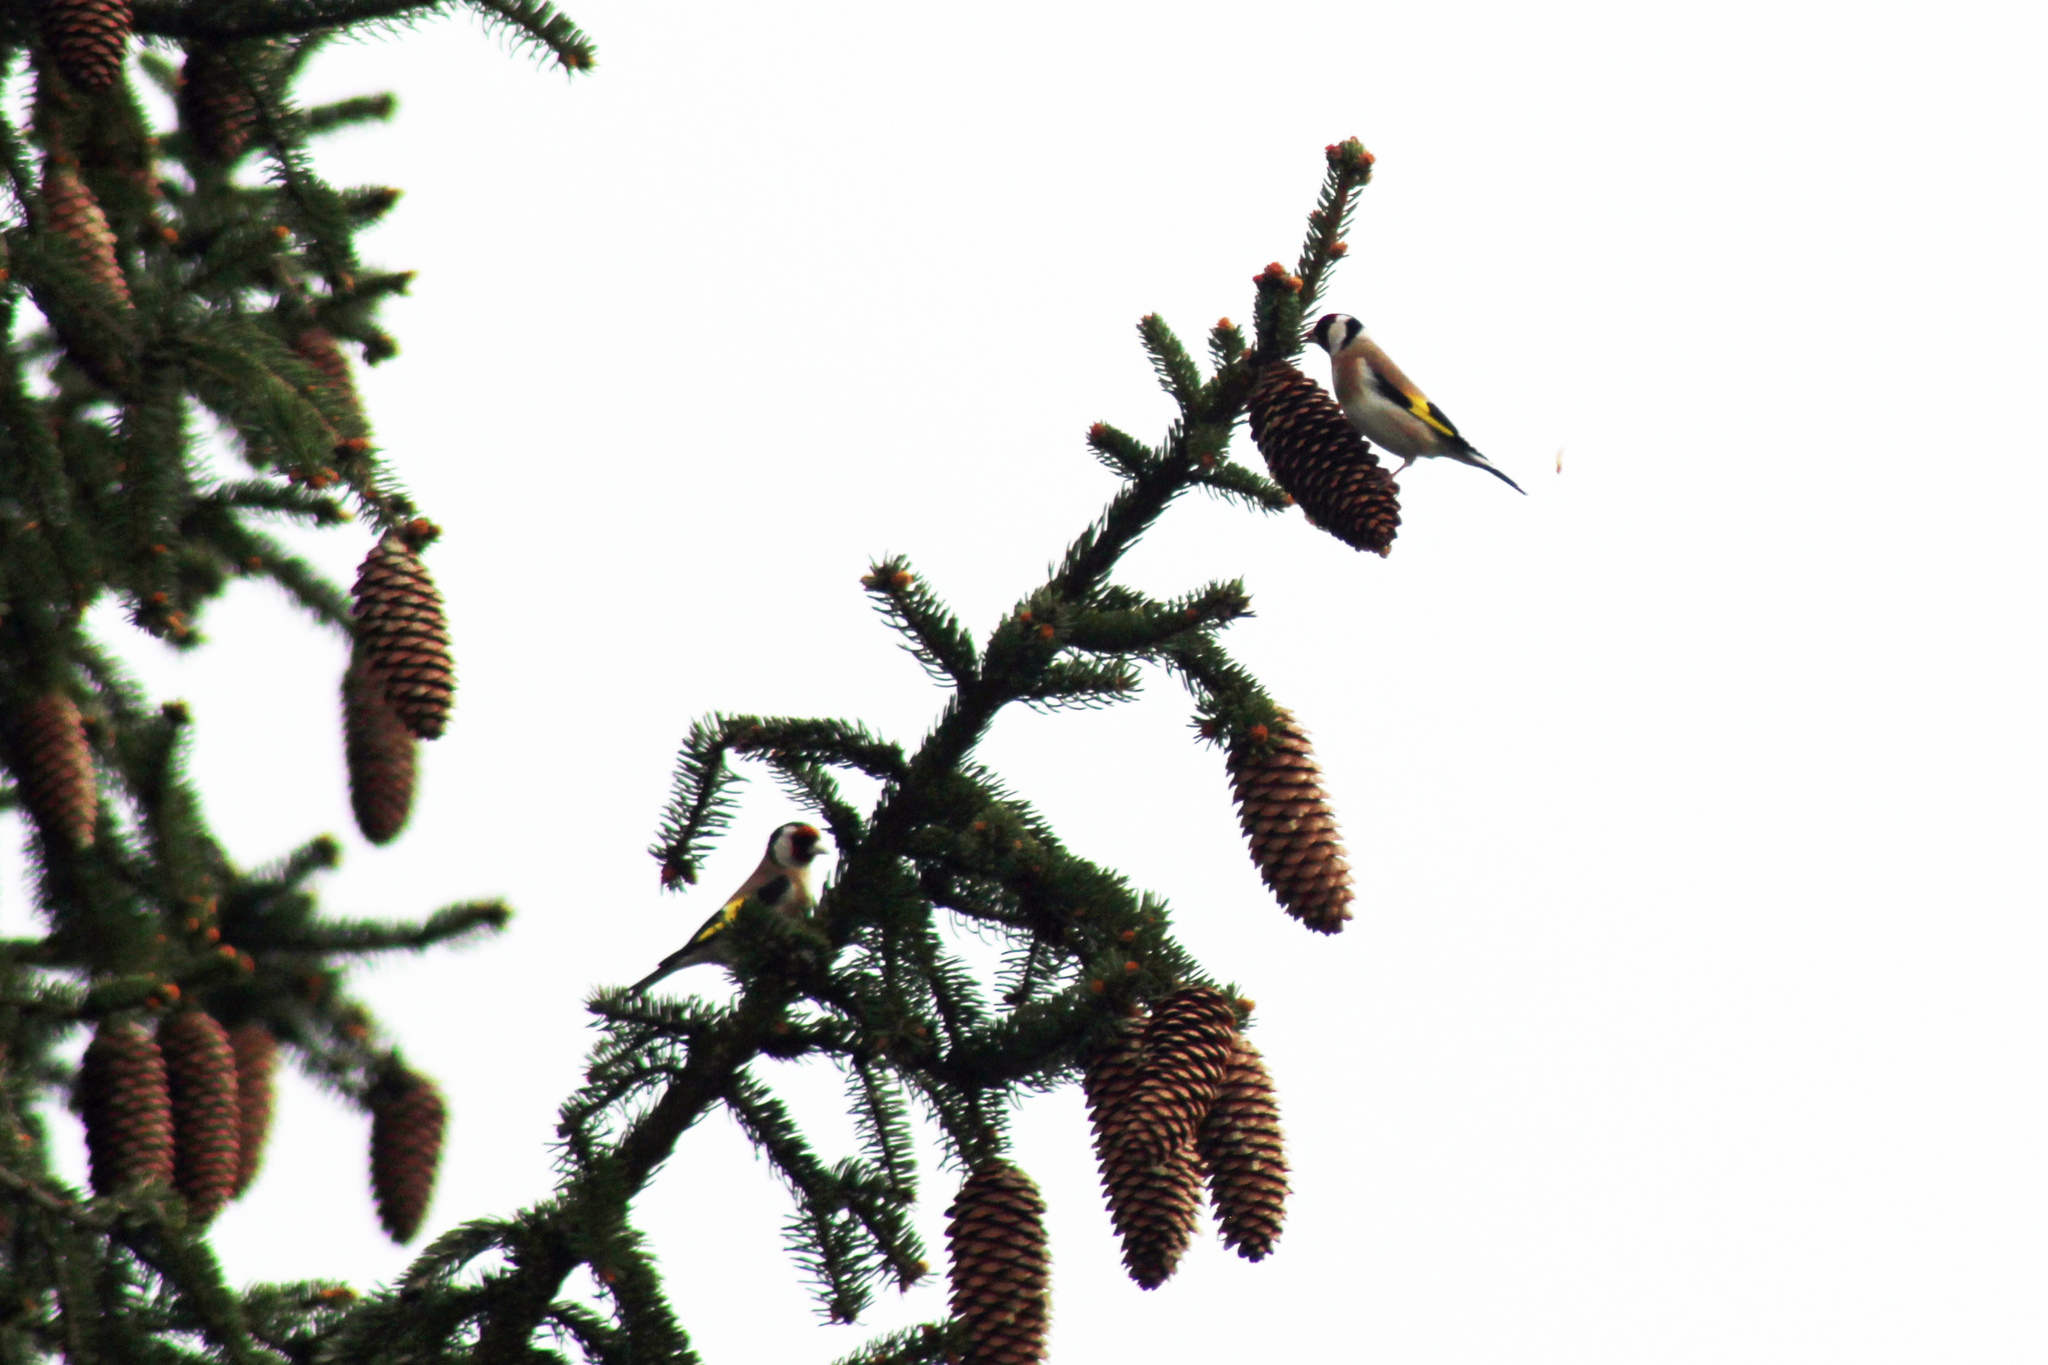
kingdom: Animalia
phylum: Chordata
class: Aves
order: Passeriformes
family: Fringillidae
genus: Carduelis
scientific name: Carduelis carduelis
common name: European goldfinch
